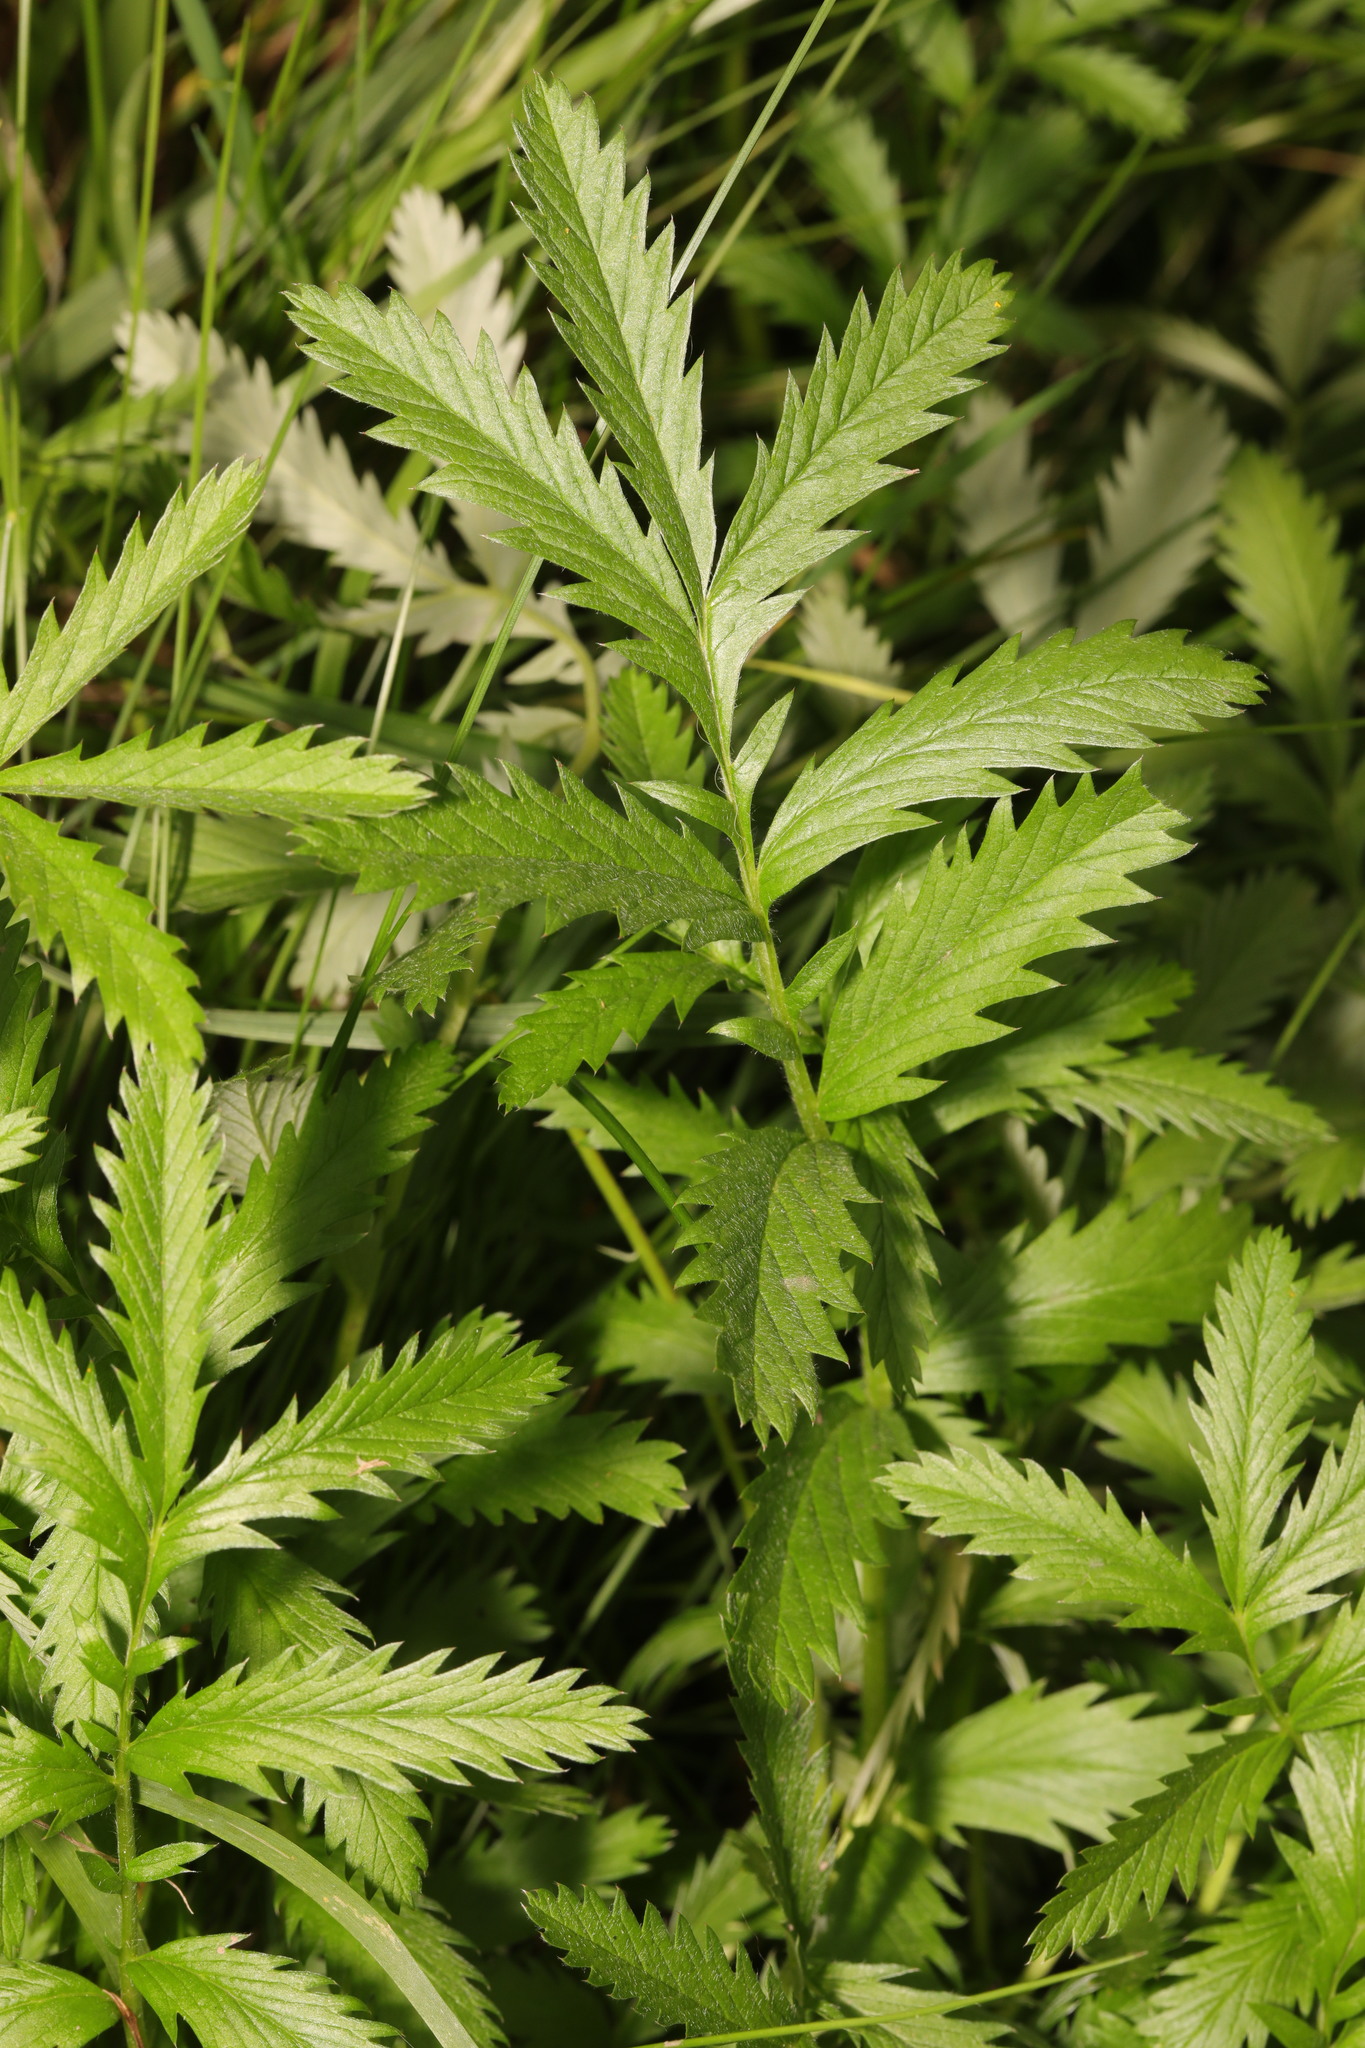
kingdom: Plantae
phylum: Tracheophyta
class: Magnoliopsida
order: Rosales
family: Rosaceae
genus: Argentina
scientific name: Argentina anserina
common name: Common silverweed
